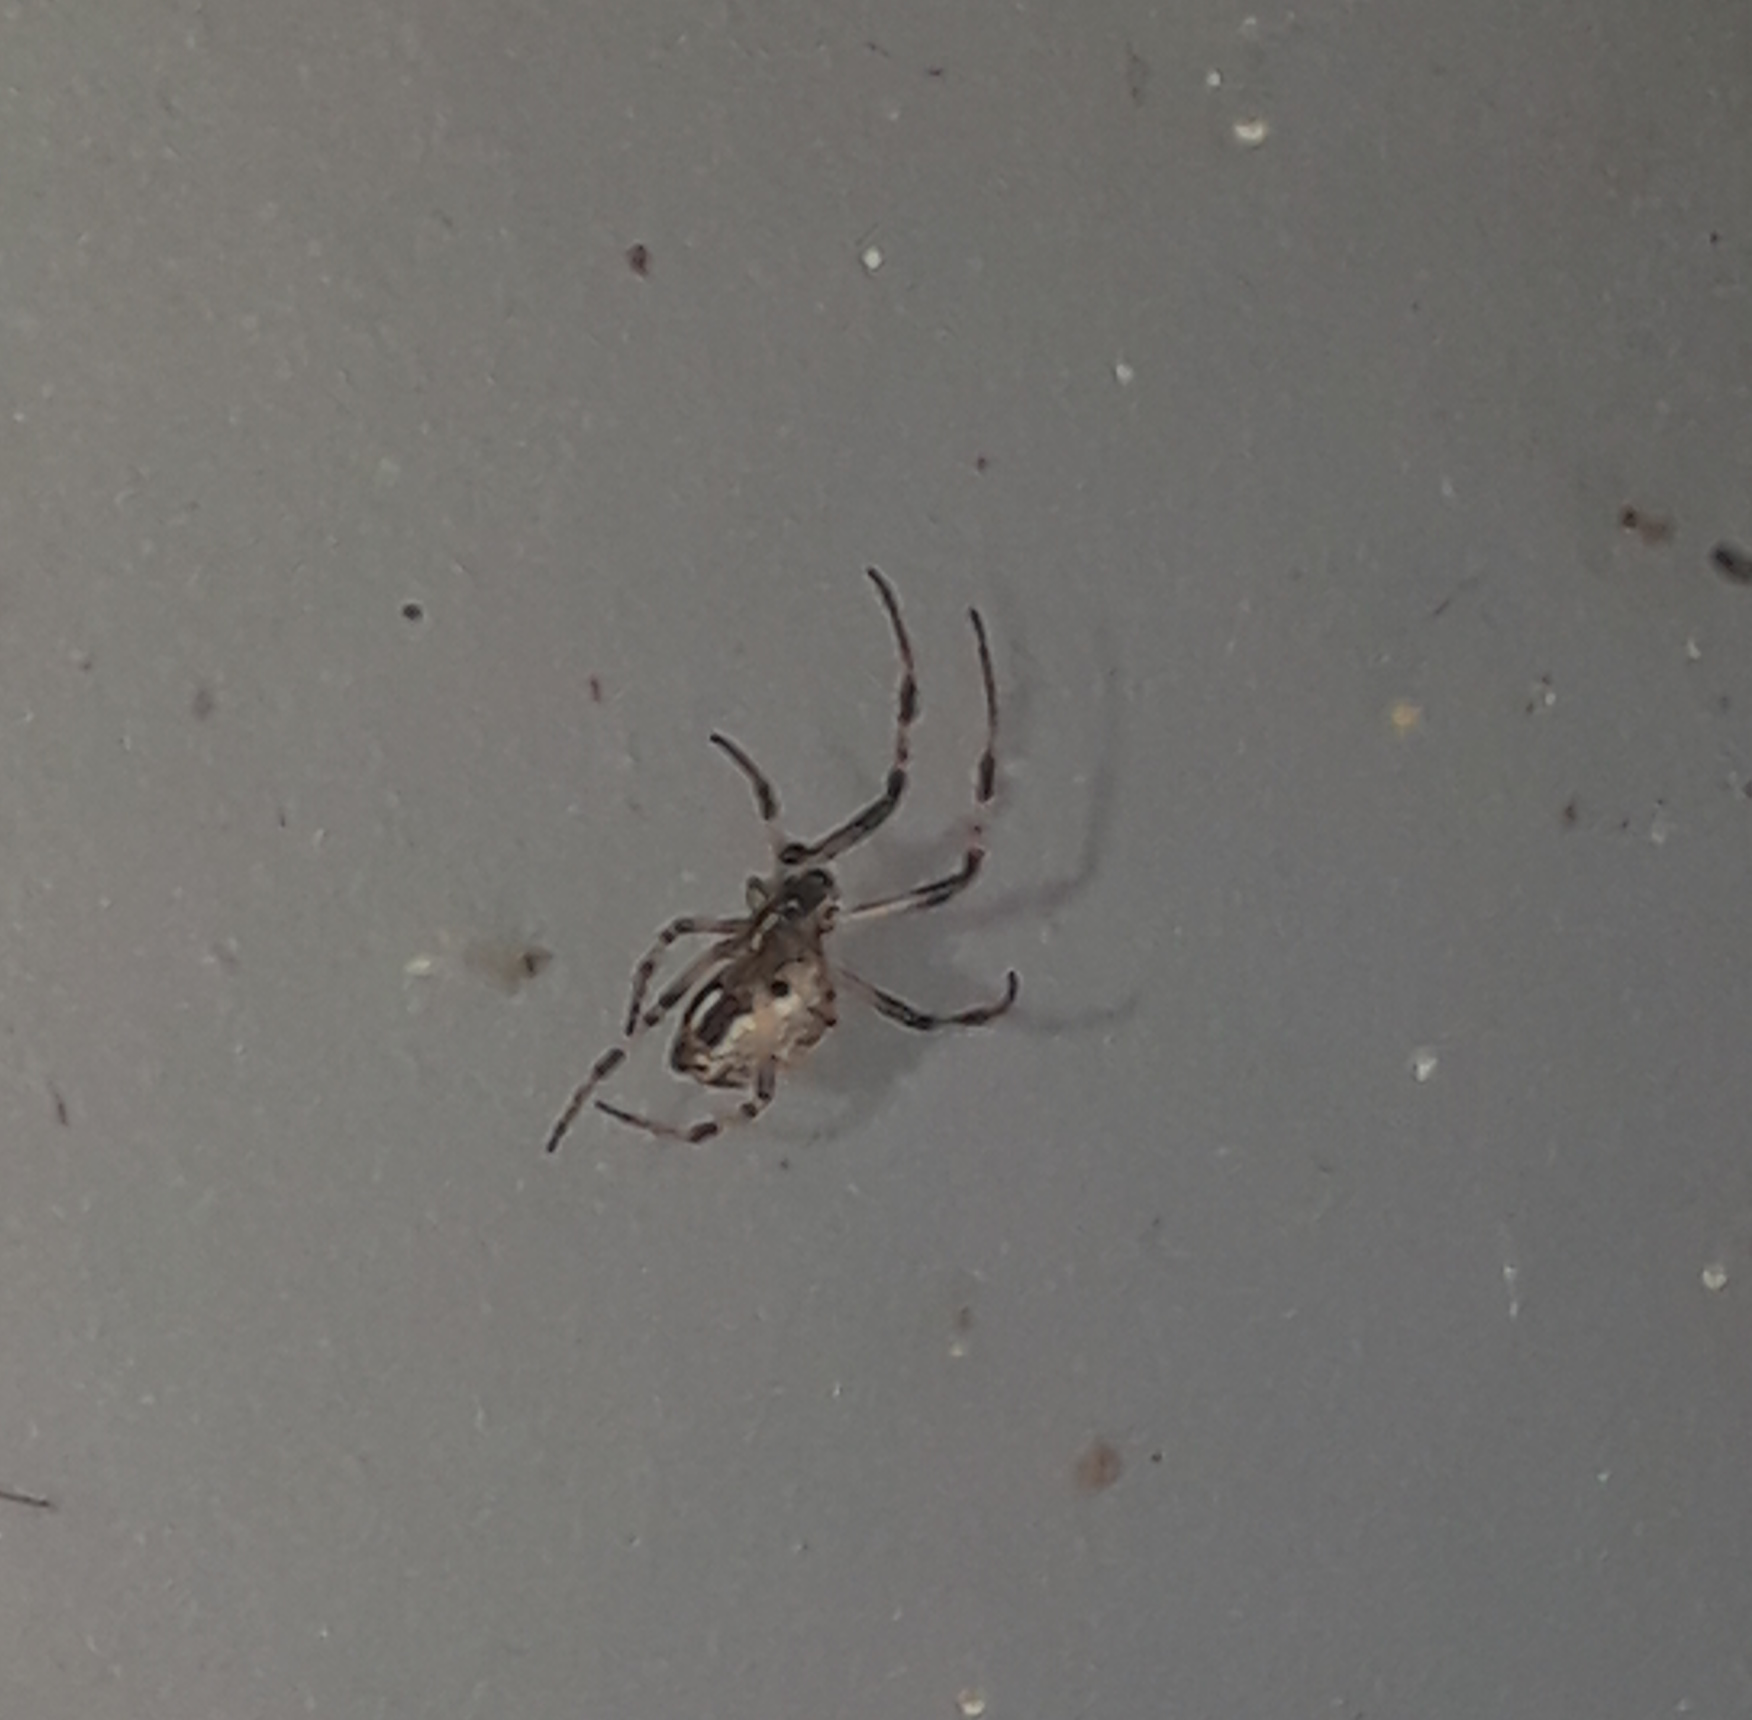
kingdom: Animalia
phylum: Arthropoda
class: Arachnida
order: Araneae
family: Araneidae
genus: Metepeira
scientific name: Metepeira
